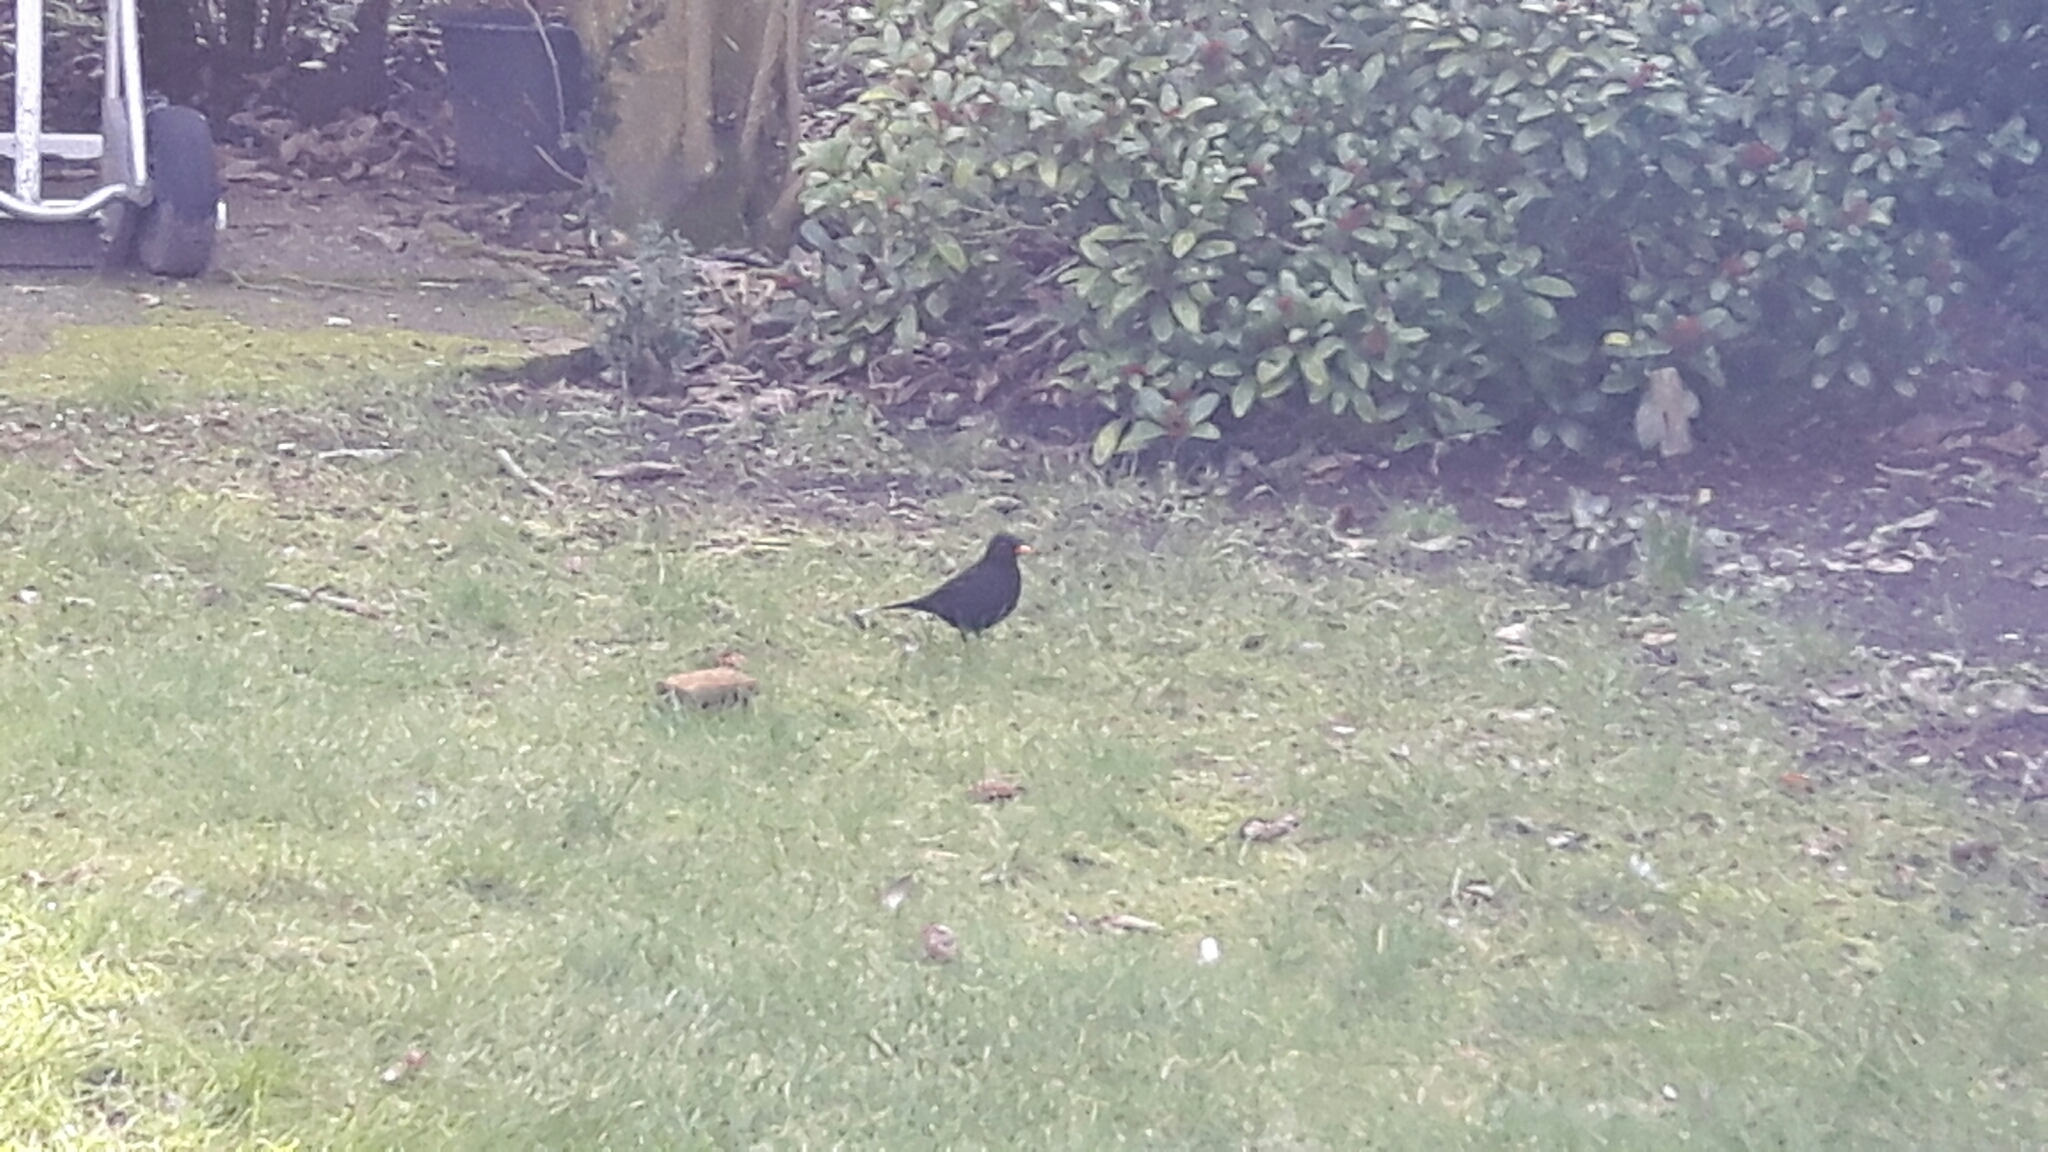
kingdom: Animalia
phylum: Chordata
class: Aves
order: Passeriformes
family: Turdidae
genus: Turdus
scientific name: Turdus merula
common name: Common blackbird
